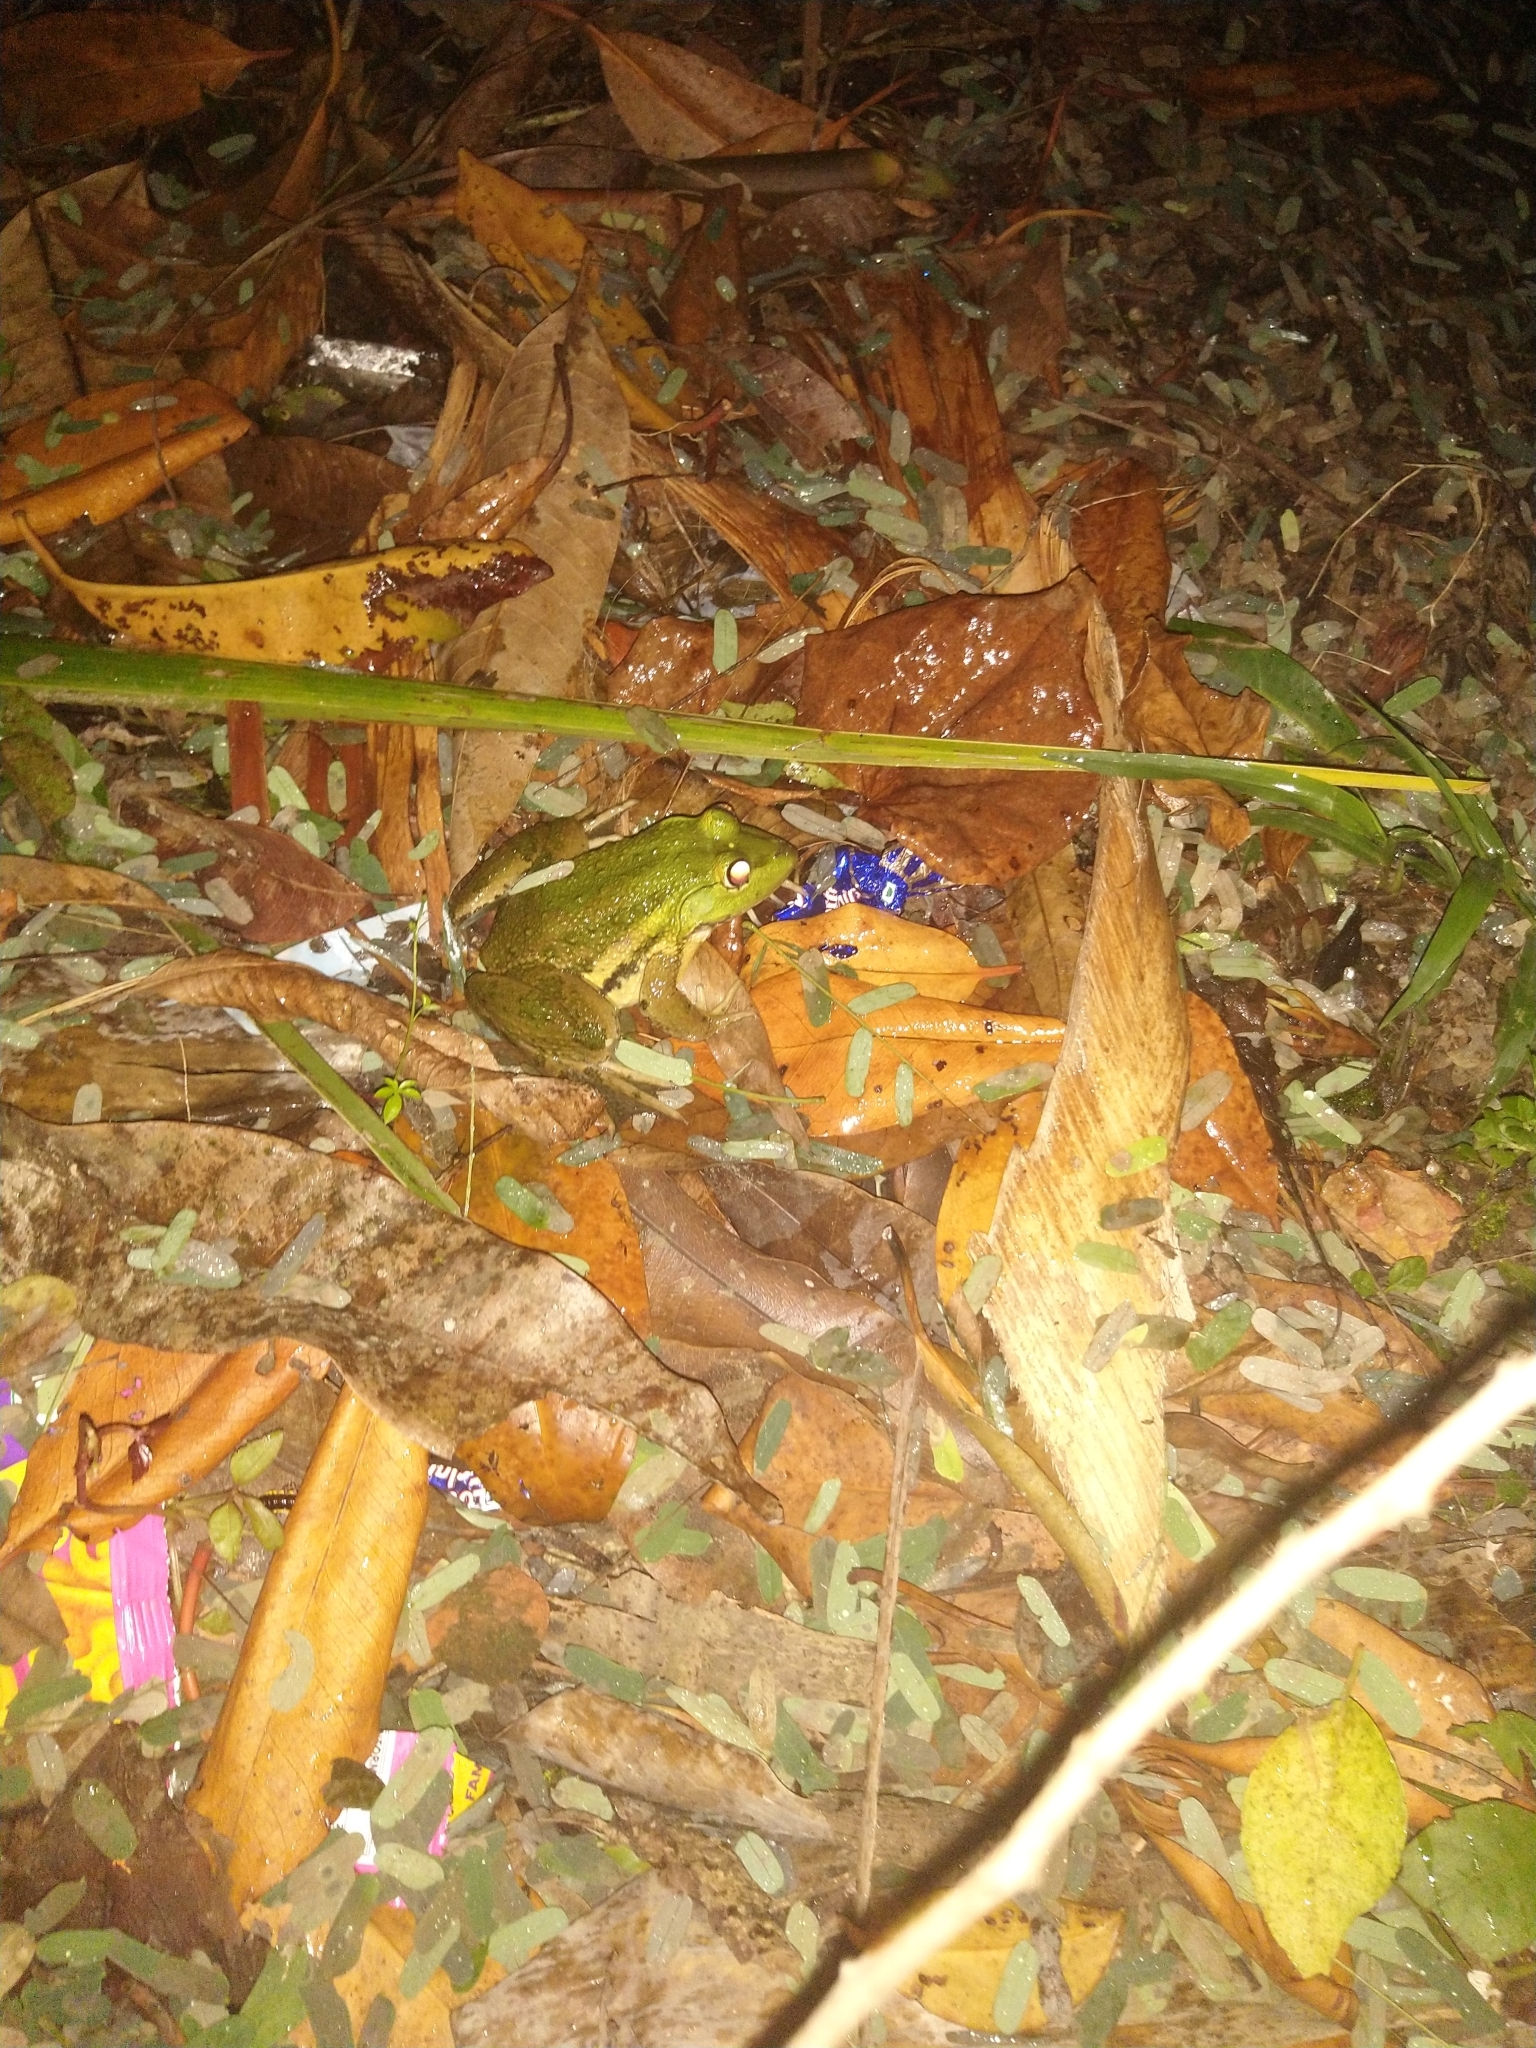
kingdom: Animalia
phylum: Chordata
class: Amphibia
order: Anura
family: Dicroglossidae
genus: Hoplobatrachus
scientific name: Hoplobatrachus tigerinus
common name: Indian bullfrog
